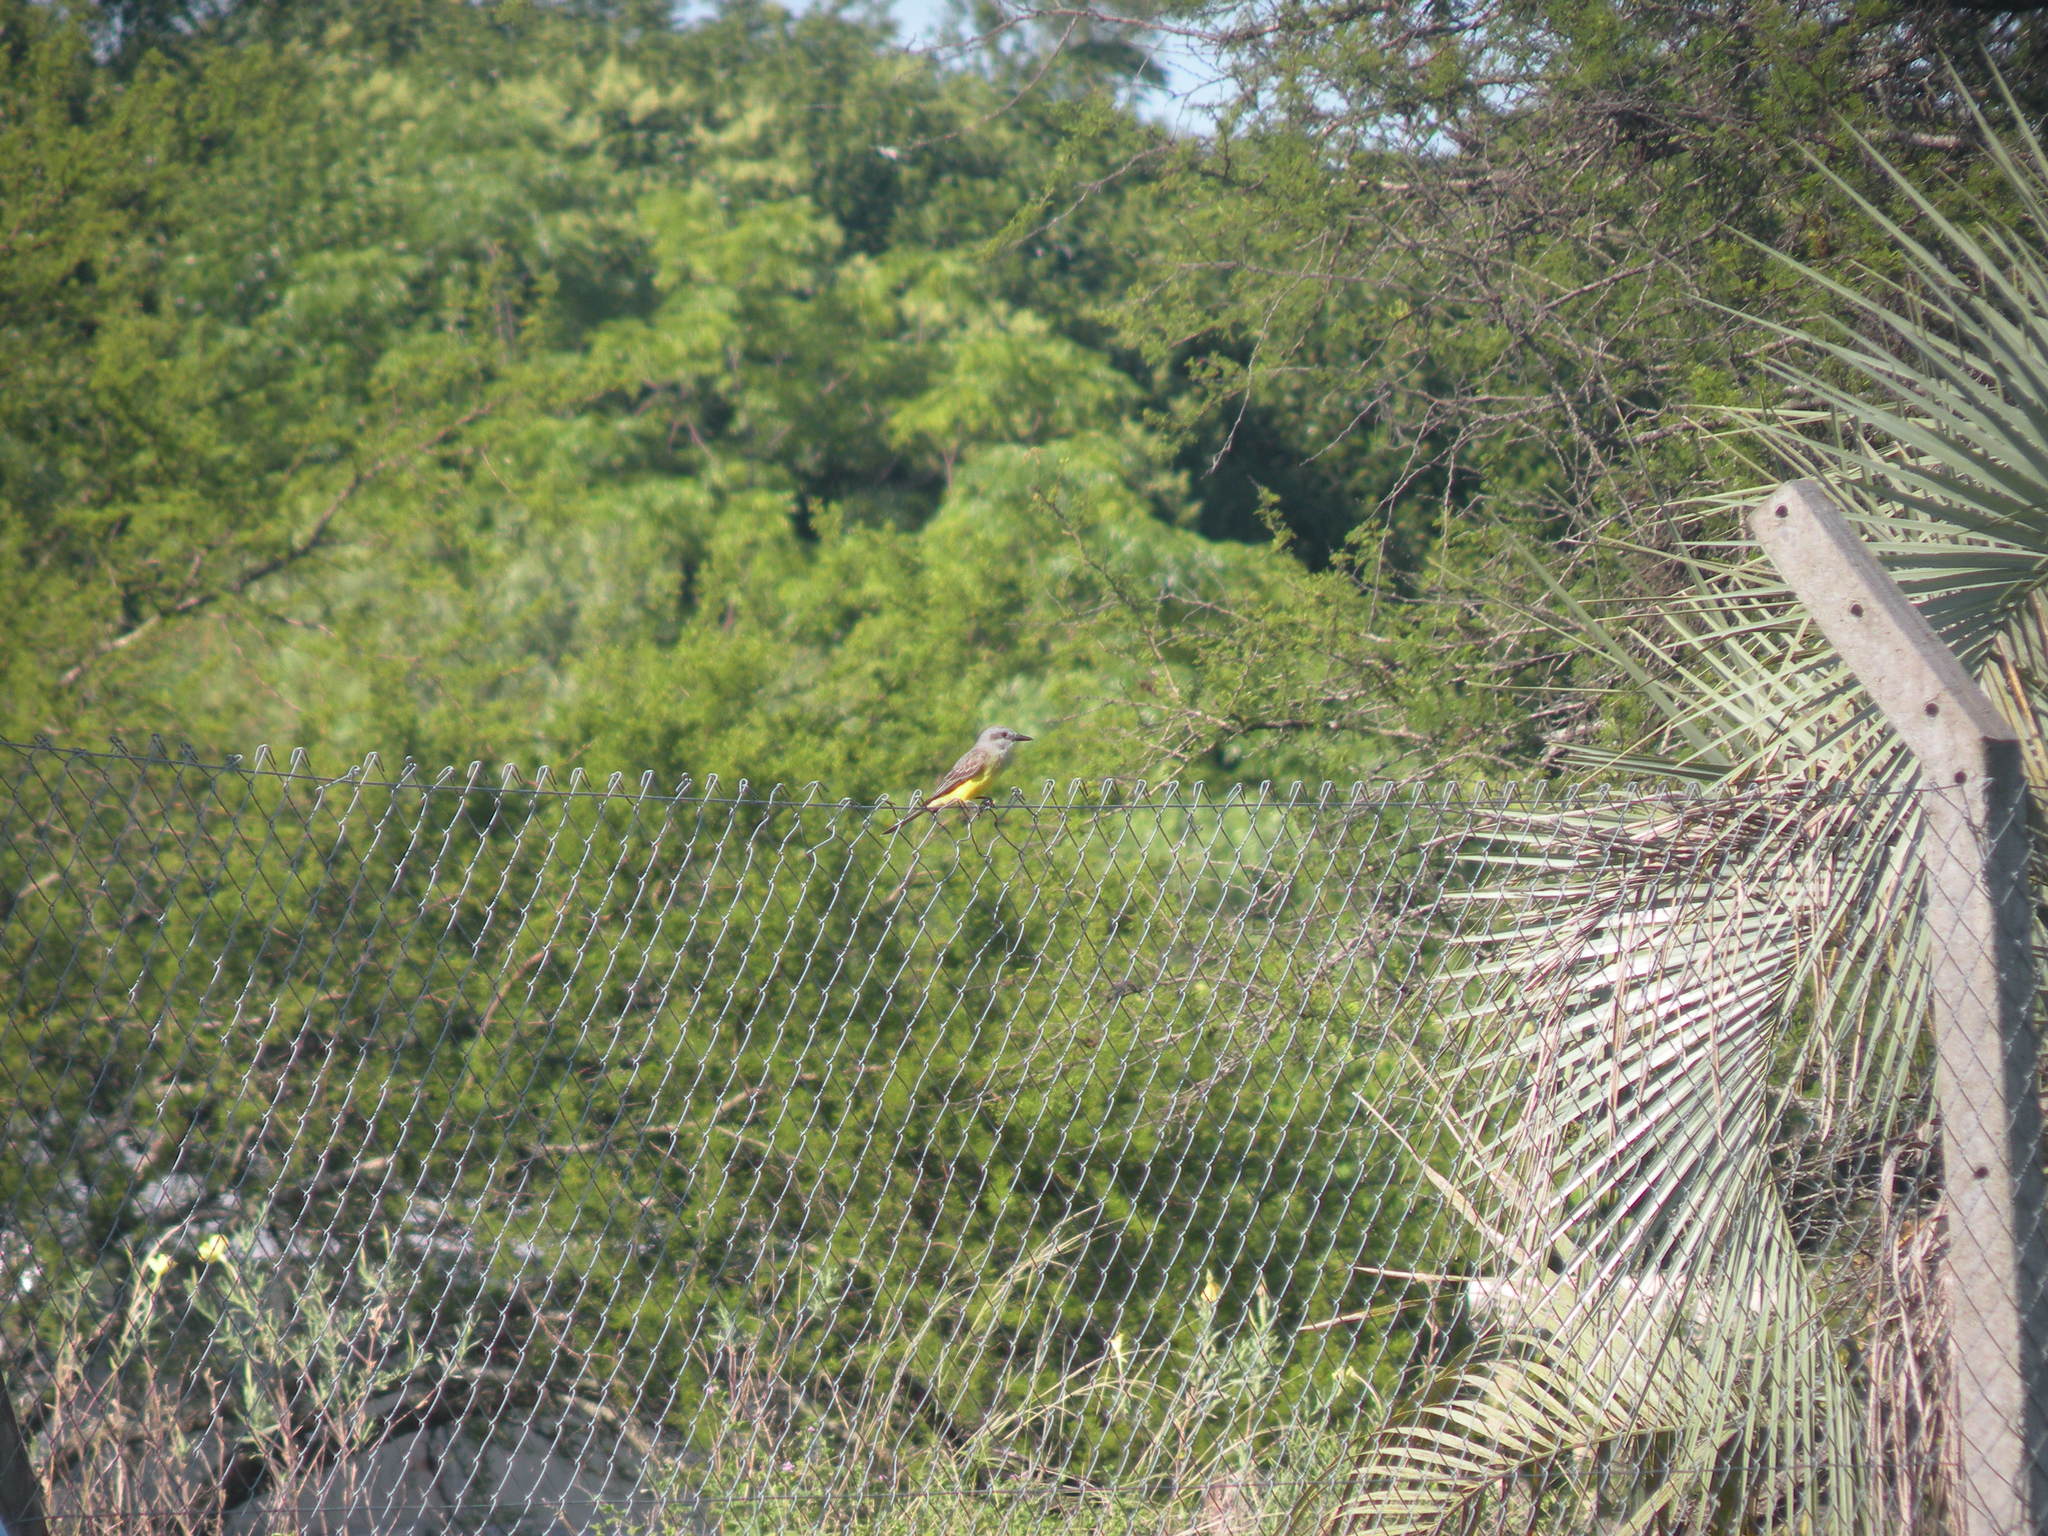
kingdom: Animalia
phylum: Chordata
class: Aves
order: Passeriformes
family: Tyrannidae
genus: Tyrannus
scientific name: Tyrannus melancholicus
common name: Tropical kingbird
